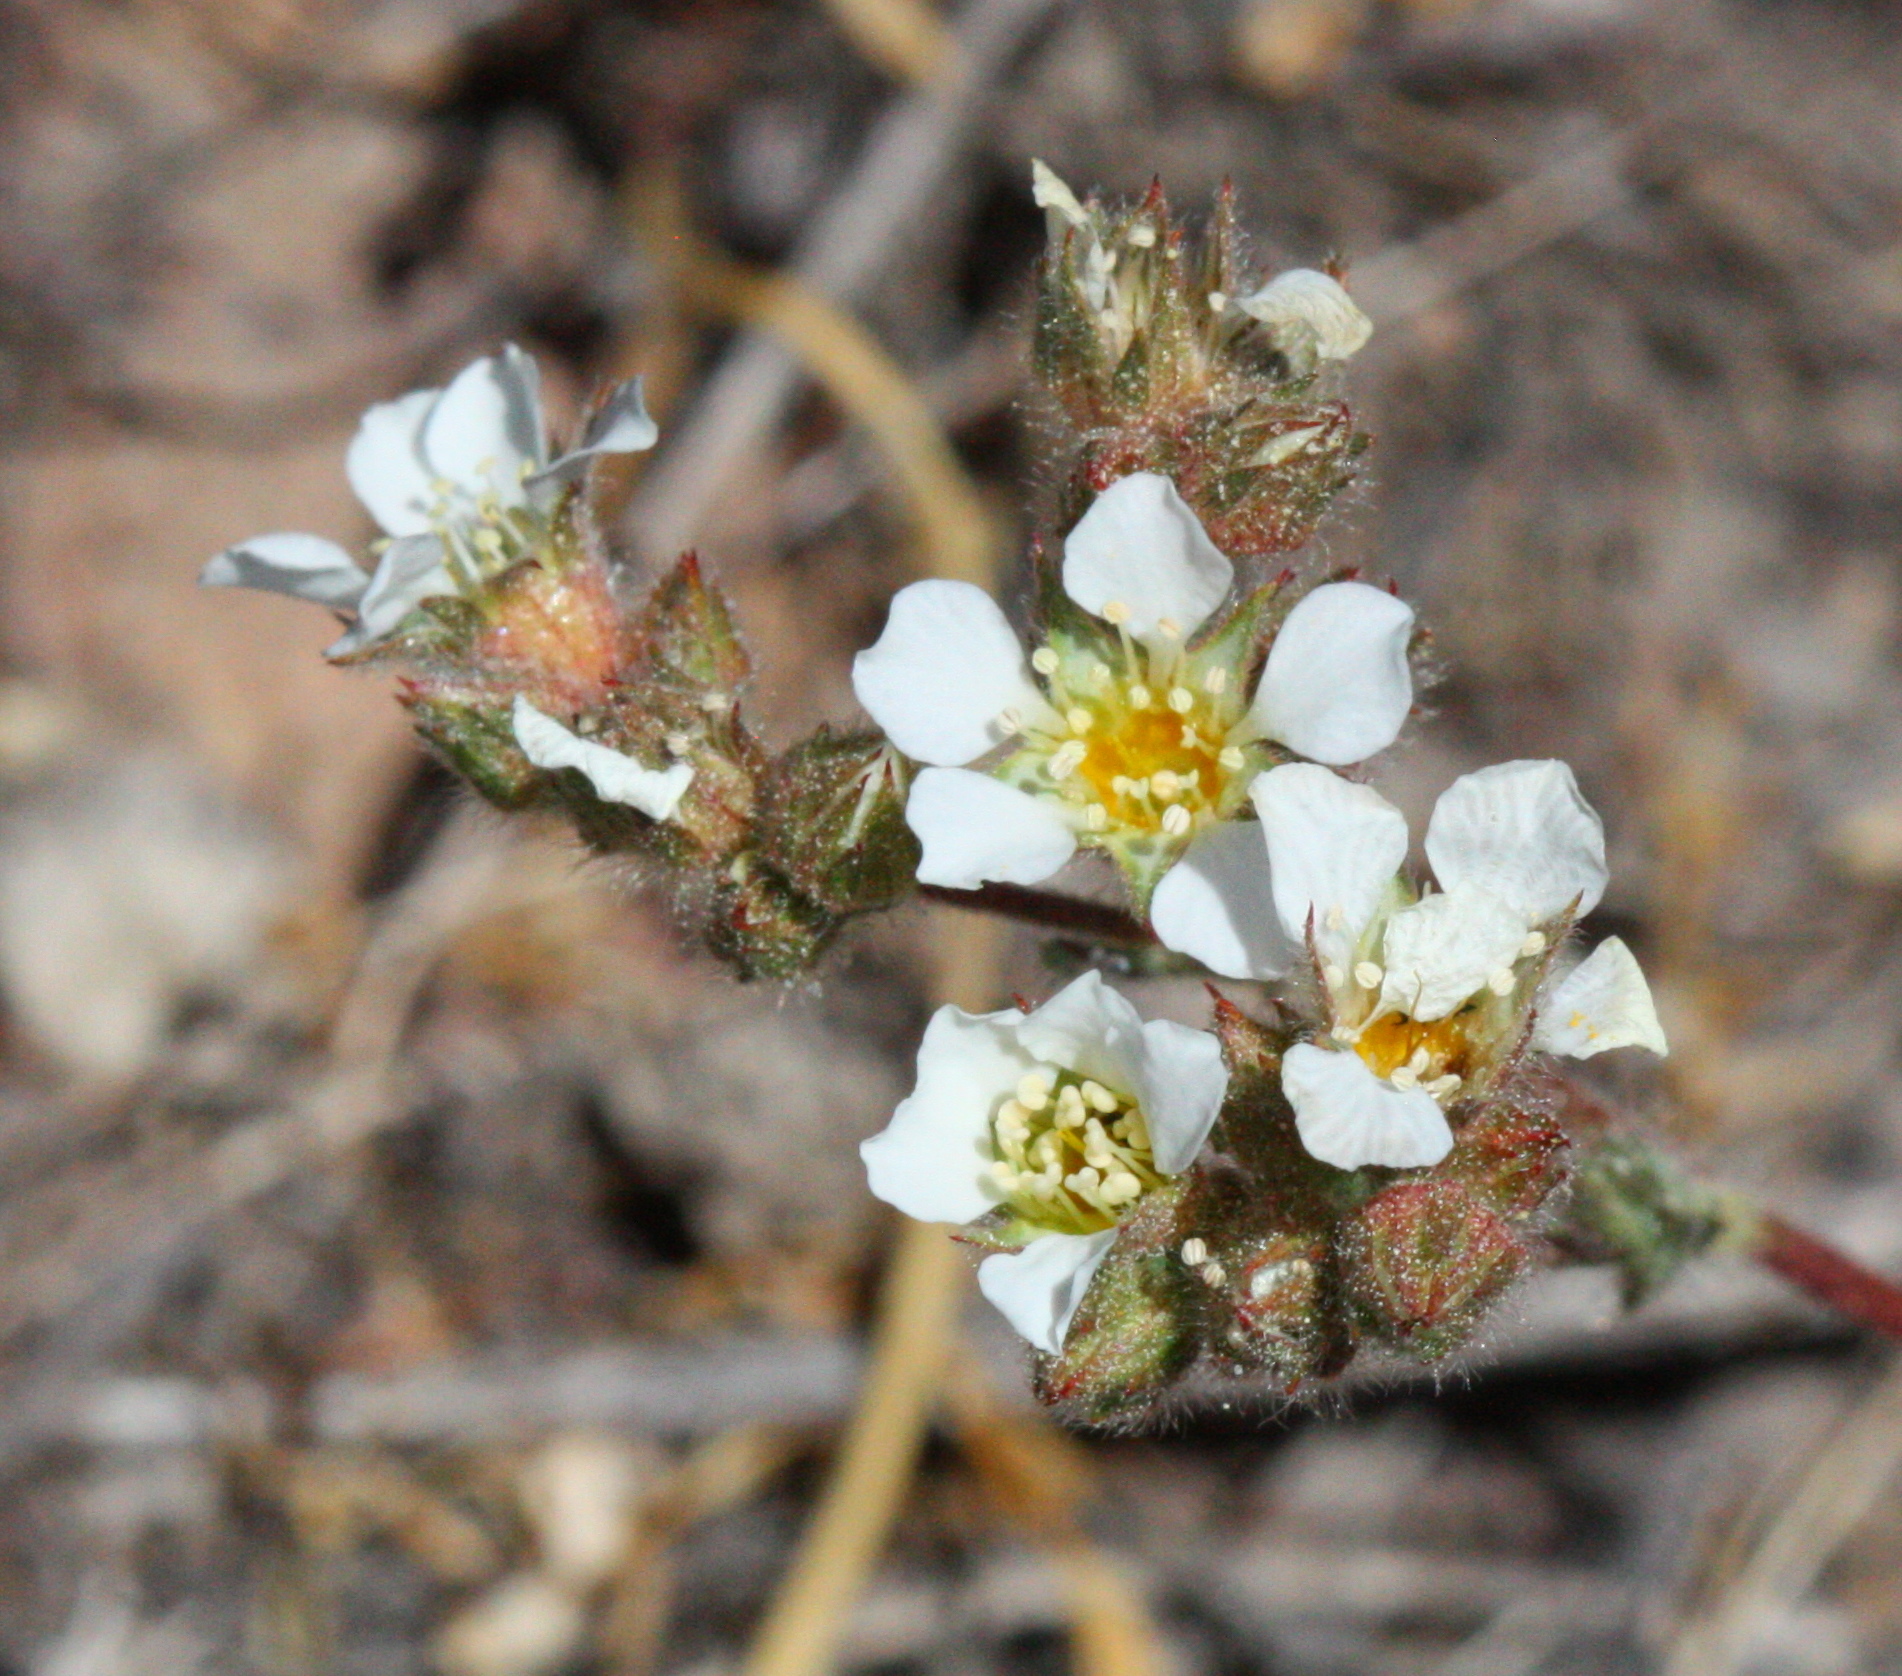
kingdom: Plantae
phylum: Tracheophyta
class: Magnoliopsida
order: Rosales
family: Rosaceae
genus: Potentilla
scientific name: Potentilla sericoleuca
